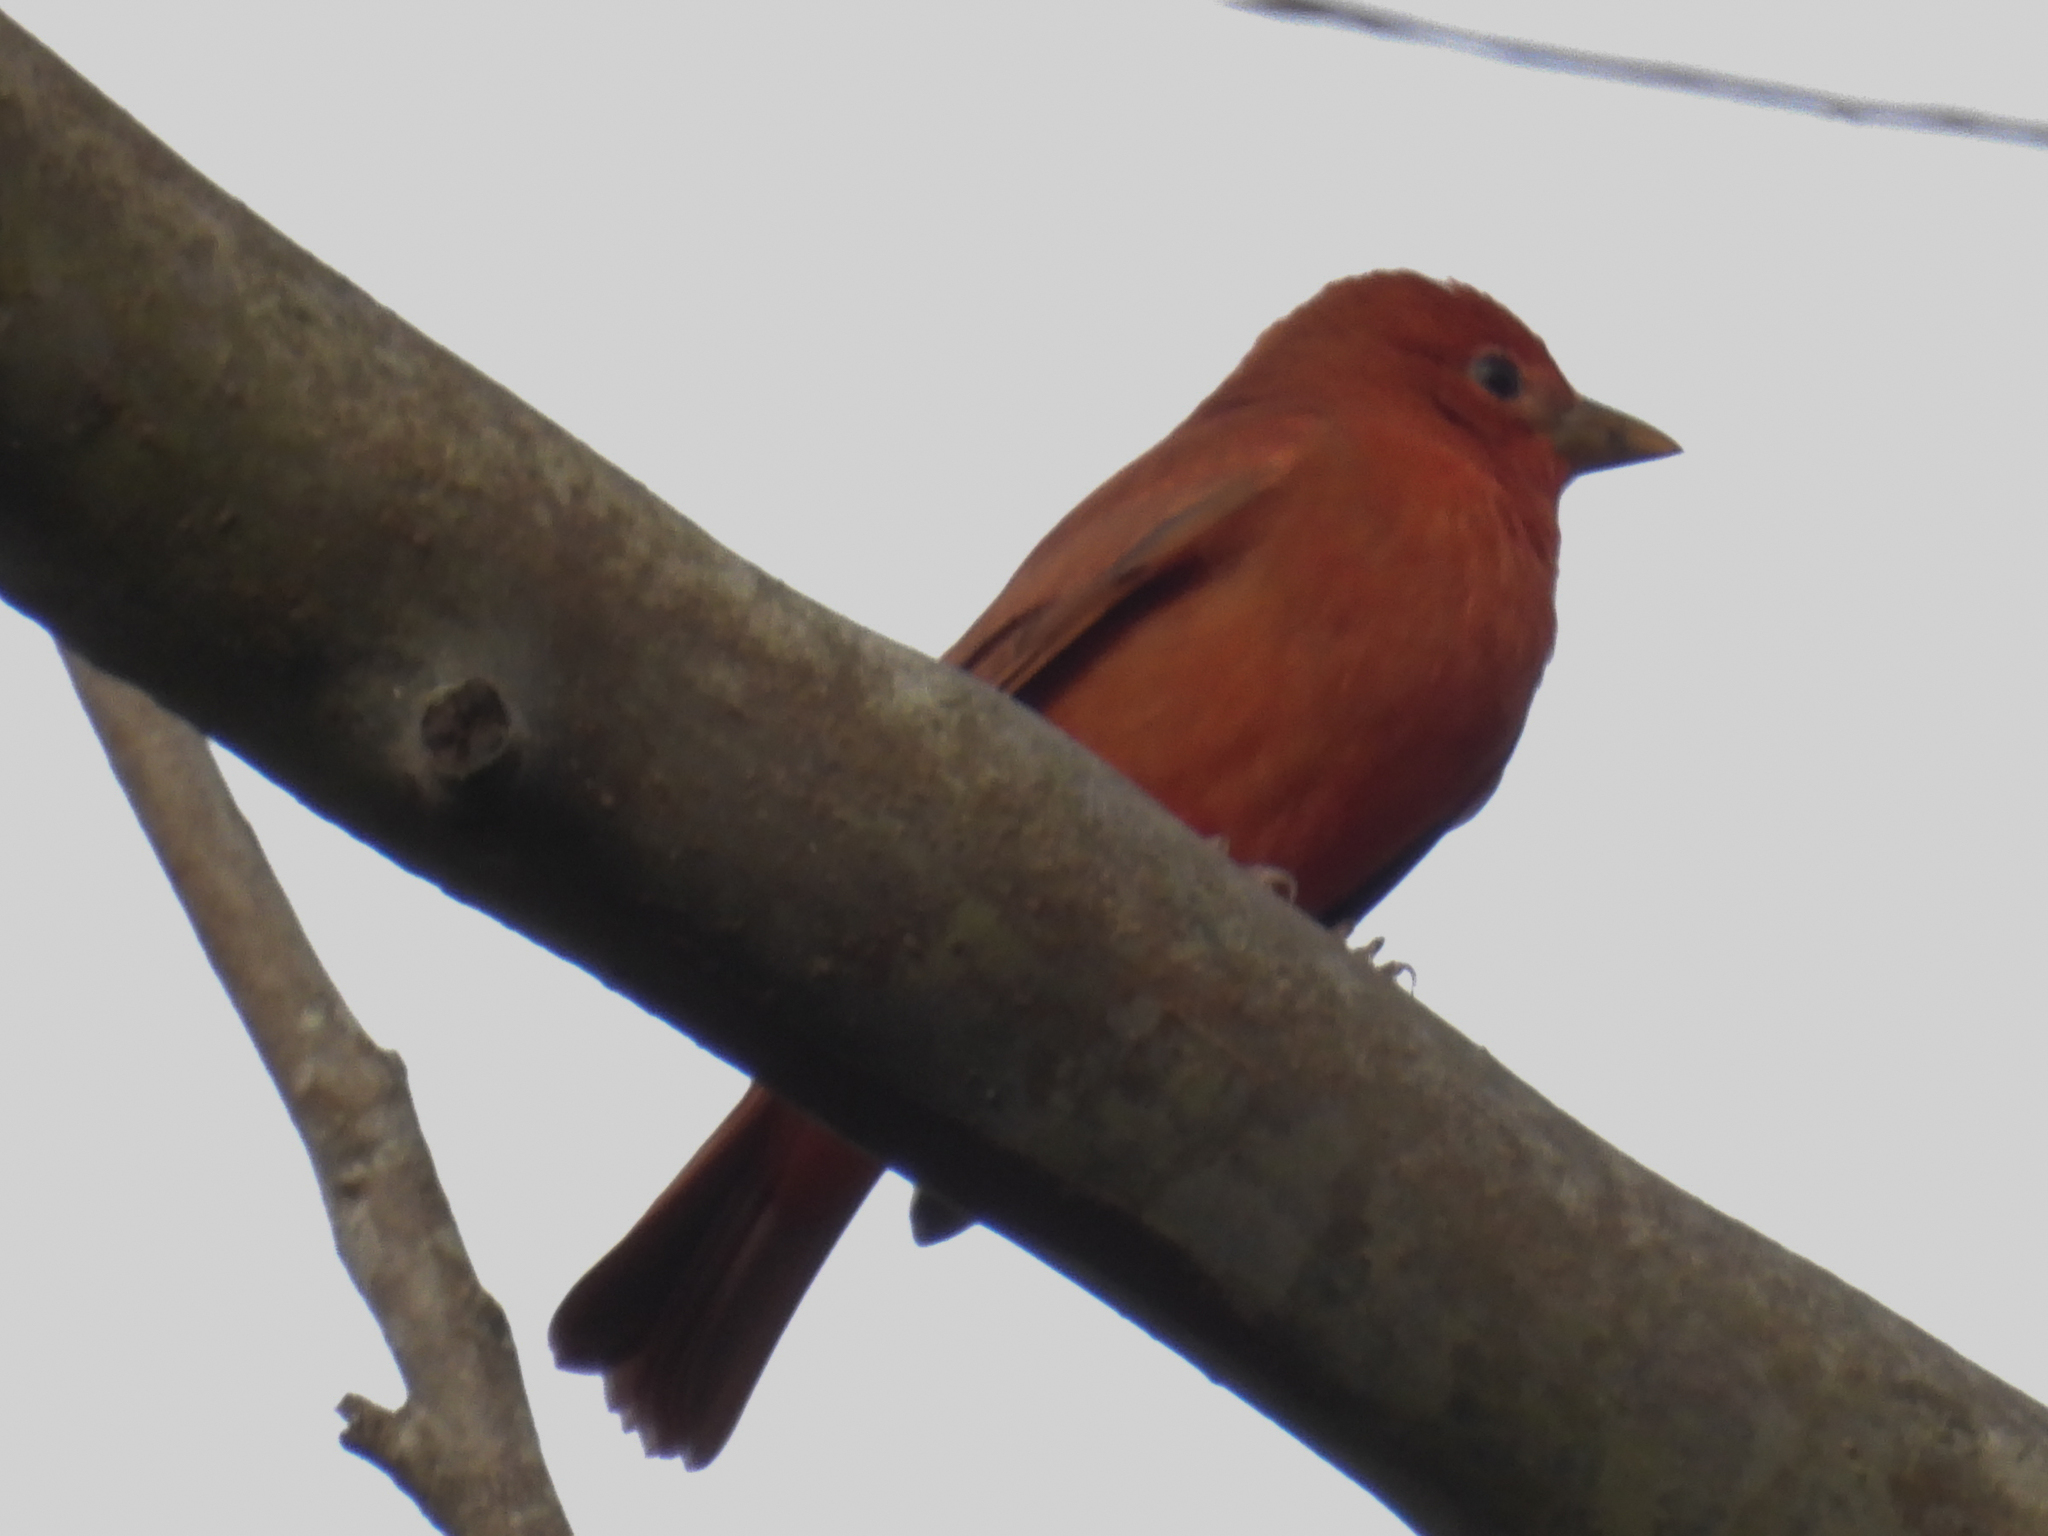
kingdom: Animalia
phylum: Chordata
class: Aves
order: Passeriformes
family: Cardinalidae
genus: Piranga
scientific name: Piranga rubra
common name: Summer tanager
